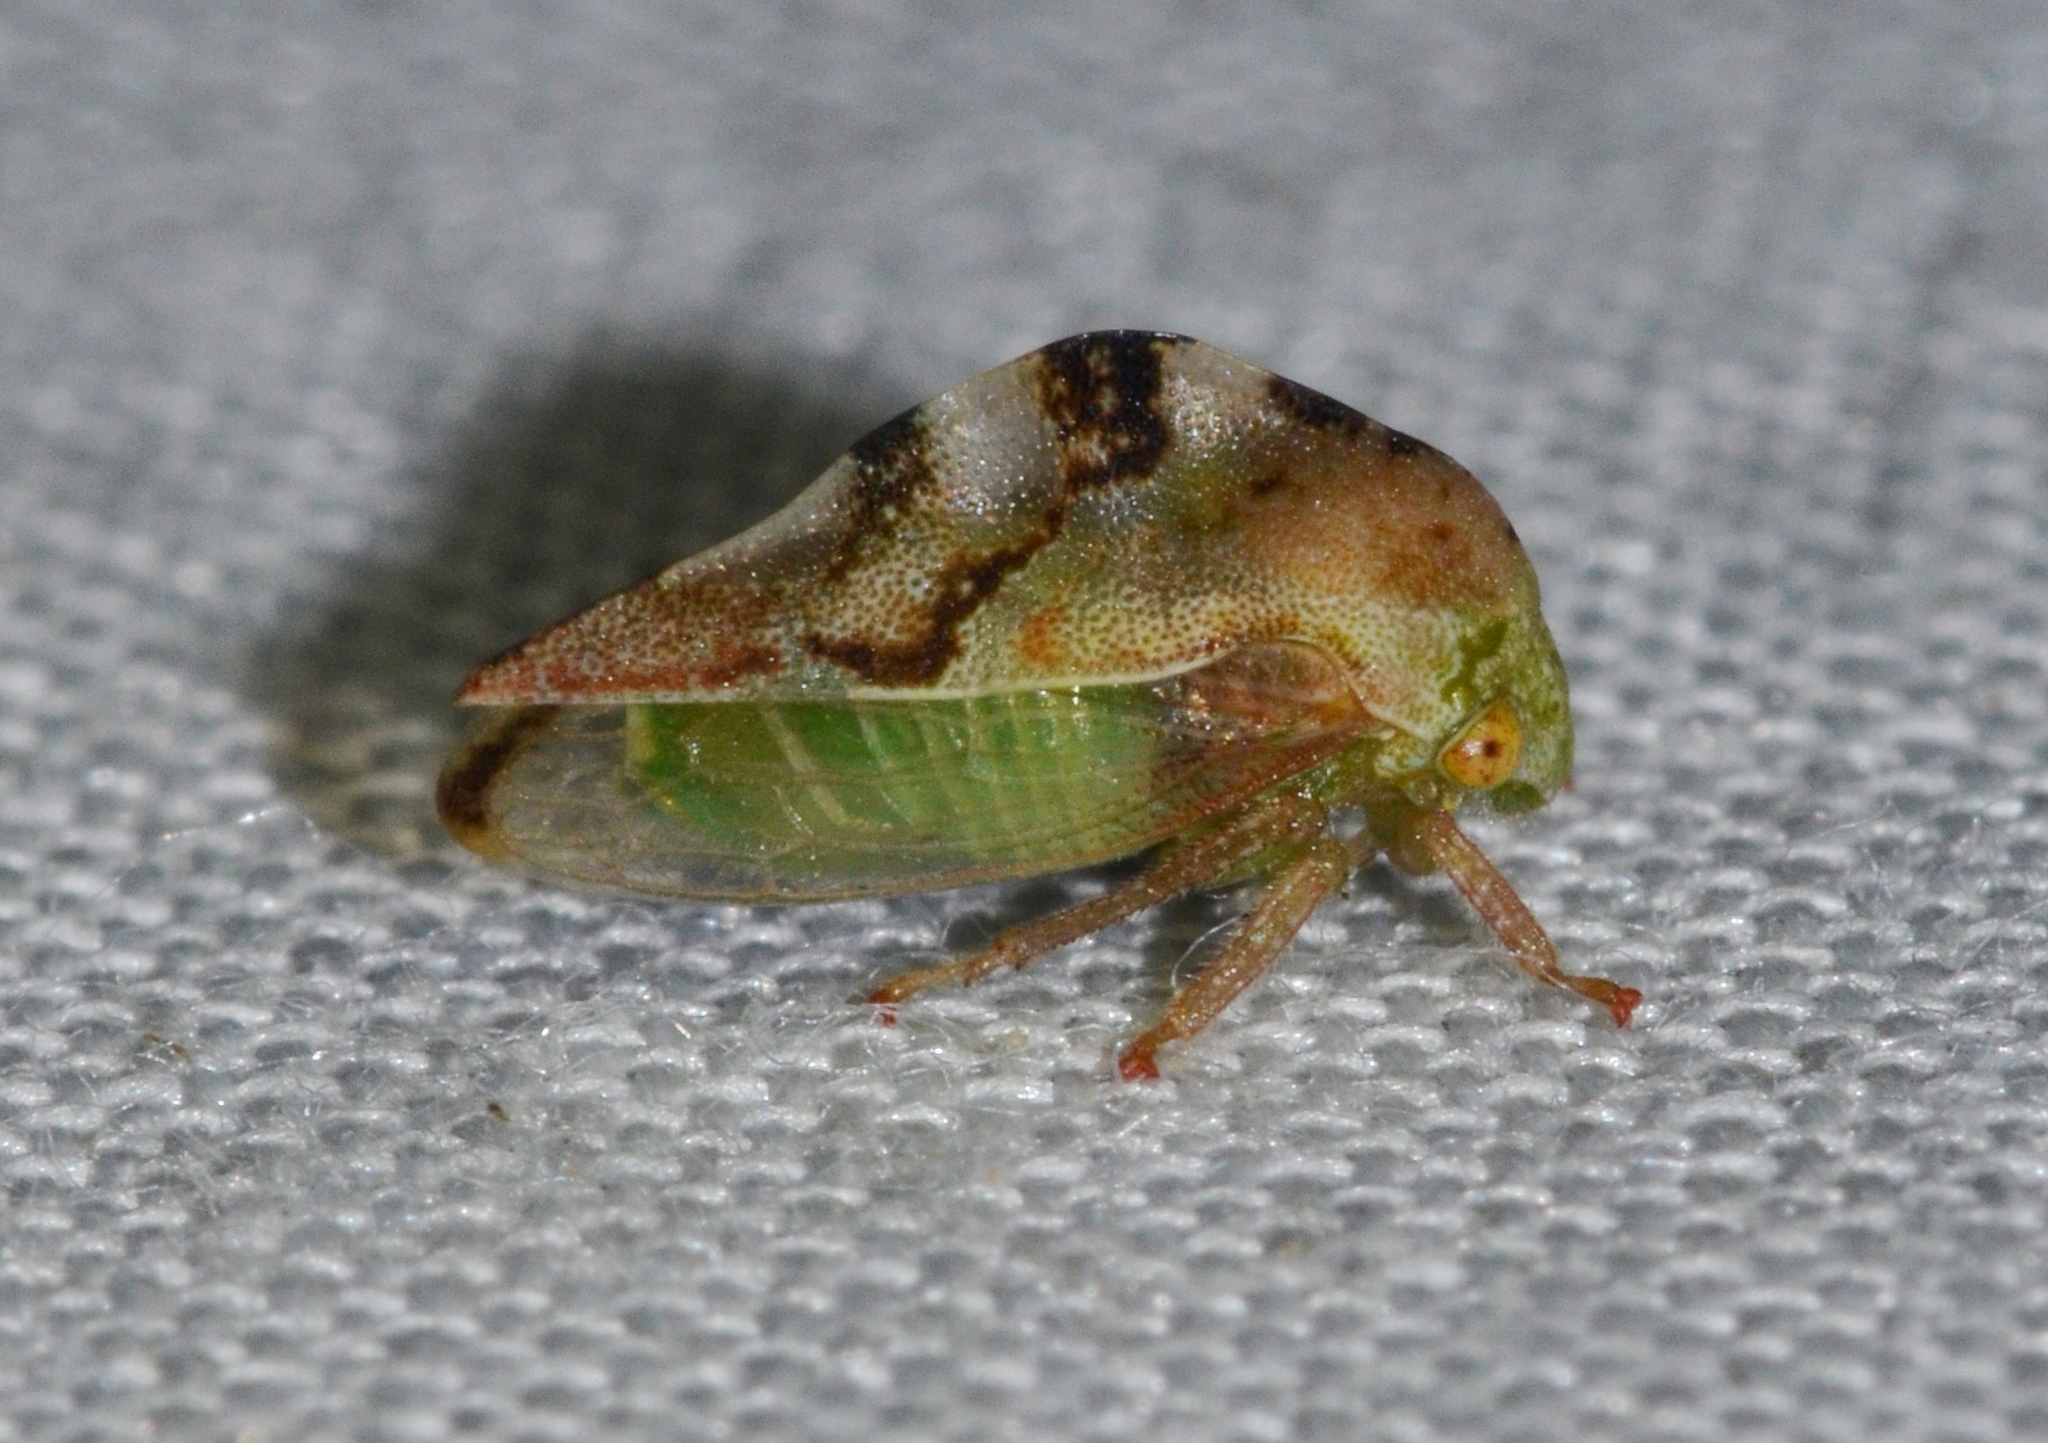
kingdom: Animalia
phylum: Arthropoda
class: Insecta
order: Hemiptera
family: Membracidae
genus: Cyrtolobus
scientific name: Cyrtolobus fenestrata
